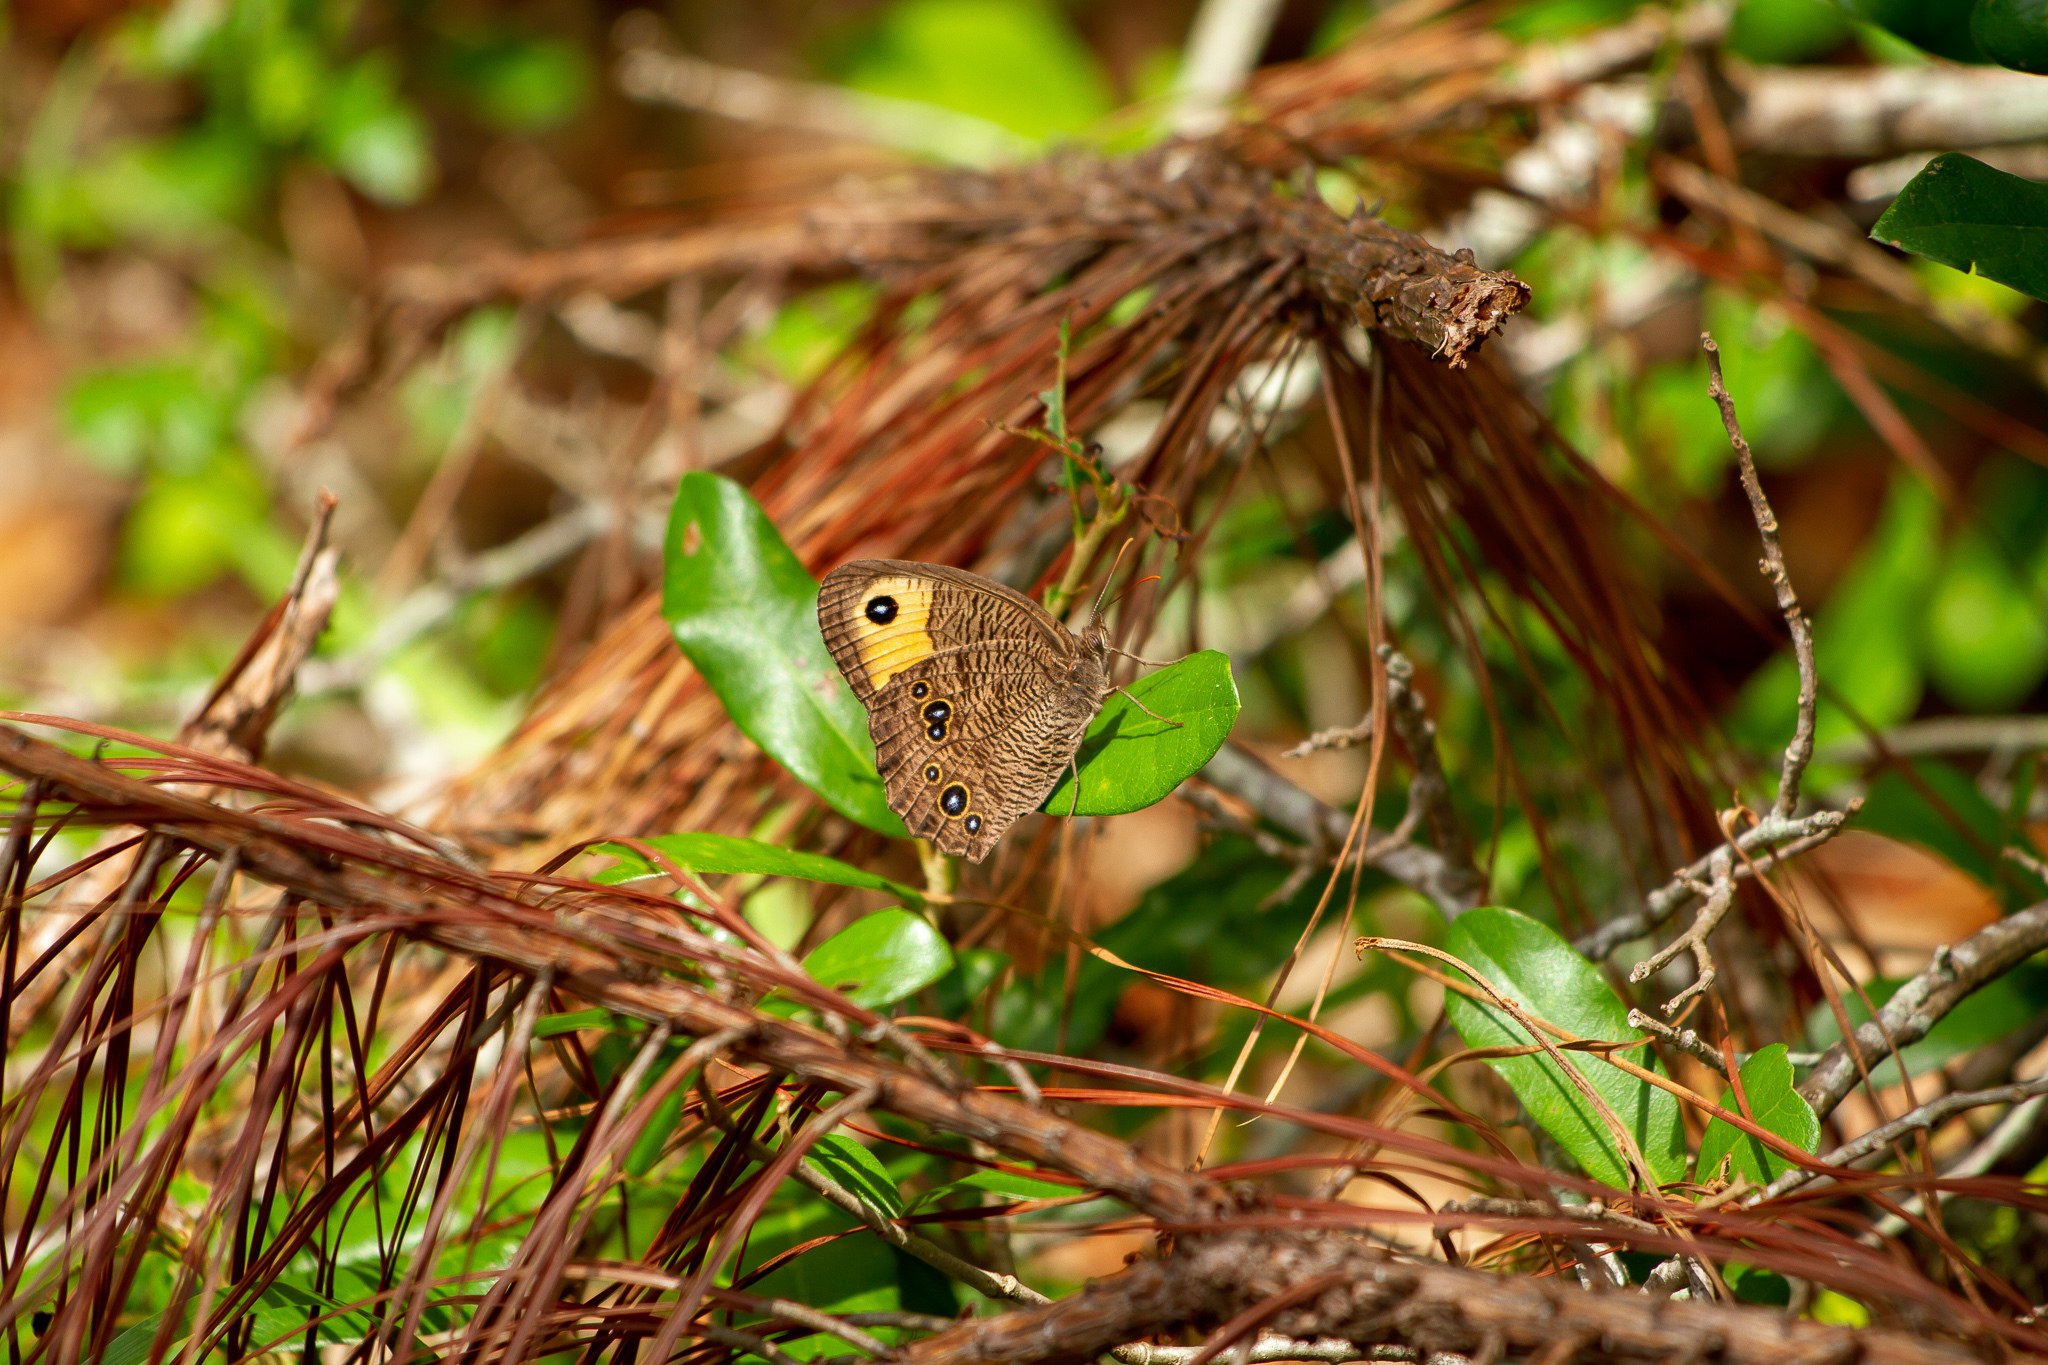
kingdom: Animalia
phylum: Arthropoda
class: Insecta
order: Lepidoptera
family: Nymphalidae
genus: Cercyonis
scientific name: Cercyonis pegala
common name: Common wood-nymph
